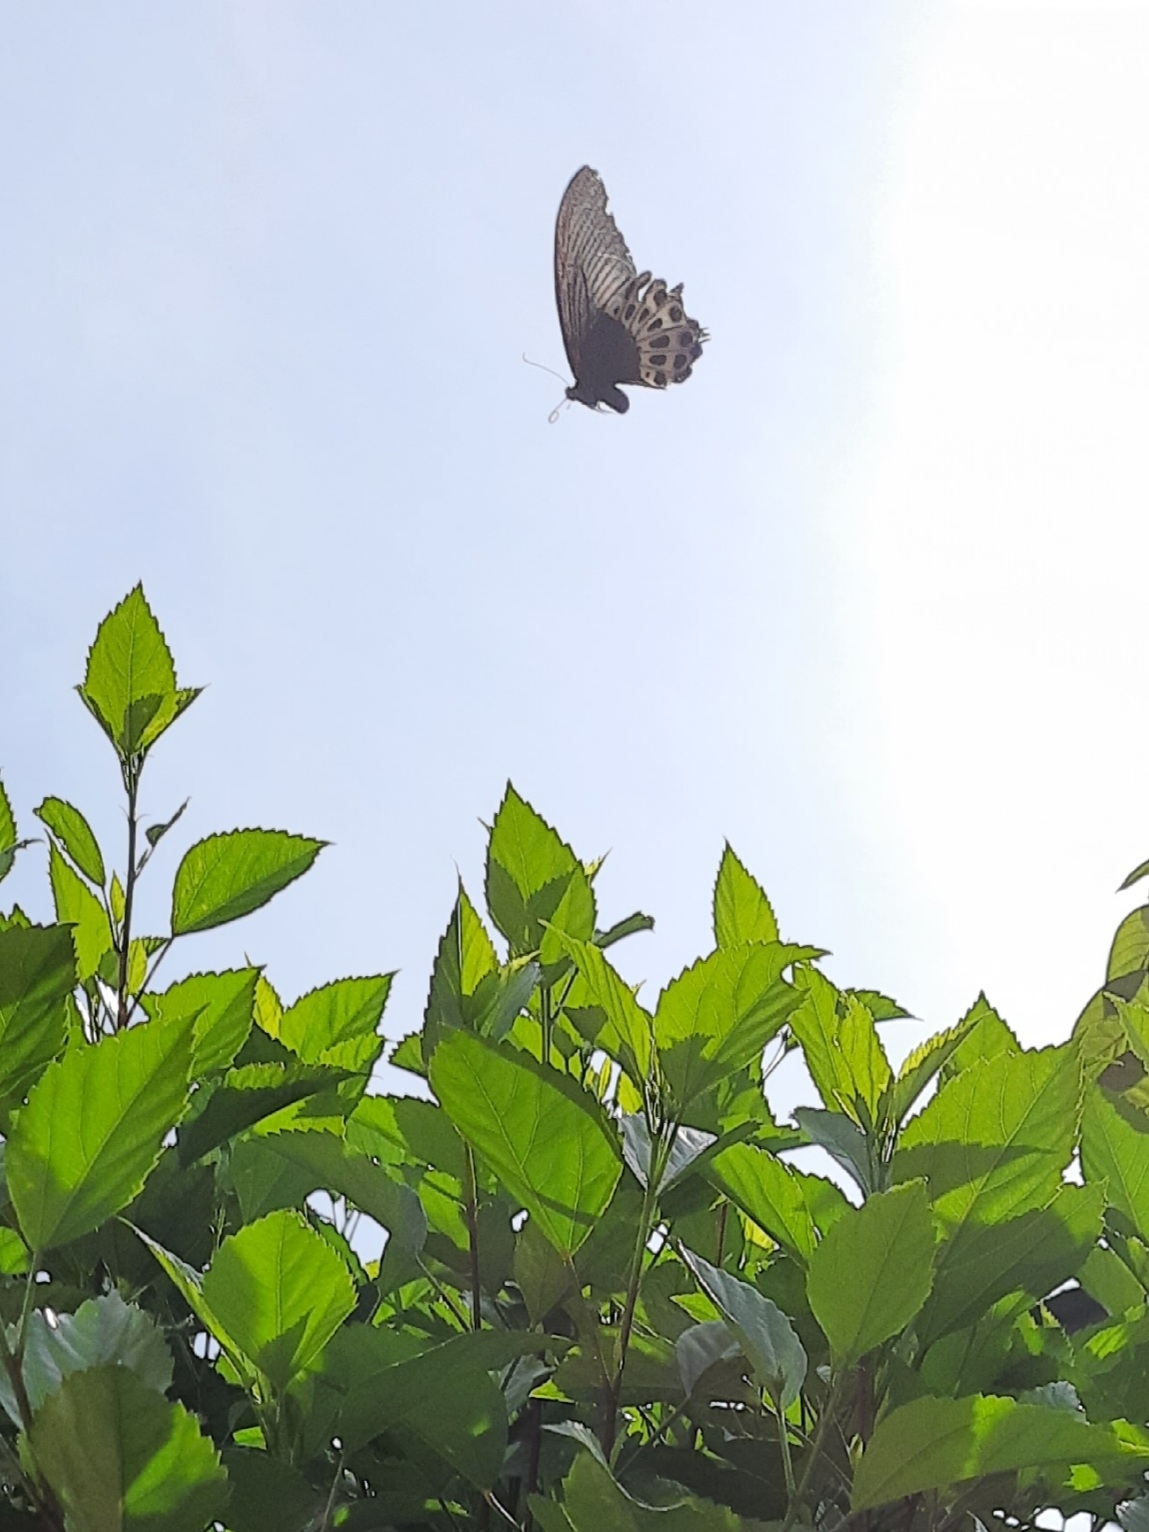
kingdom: Animalia
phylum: Arthropoda
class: Insecta
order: Lepidoptera
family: Papilionidae
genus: Papilio
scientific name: Papilio memnon
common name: Great mormon
